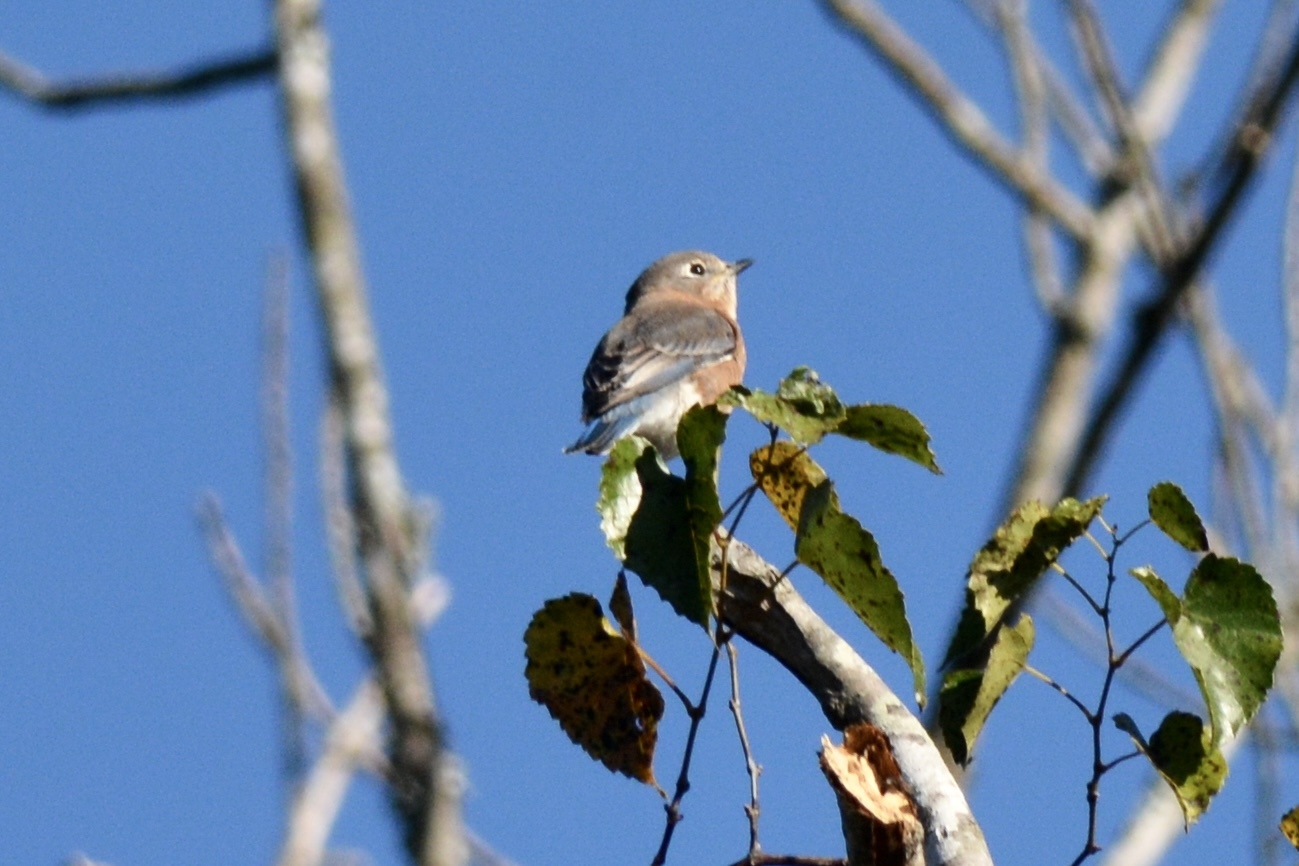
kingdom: Animalia
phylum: Chordata
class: Aves
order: Passeriformes
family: Turdidae
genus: Sialia
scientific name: Sialia sialis
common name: Eastern bluebird
